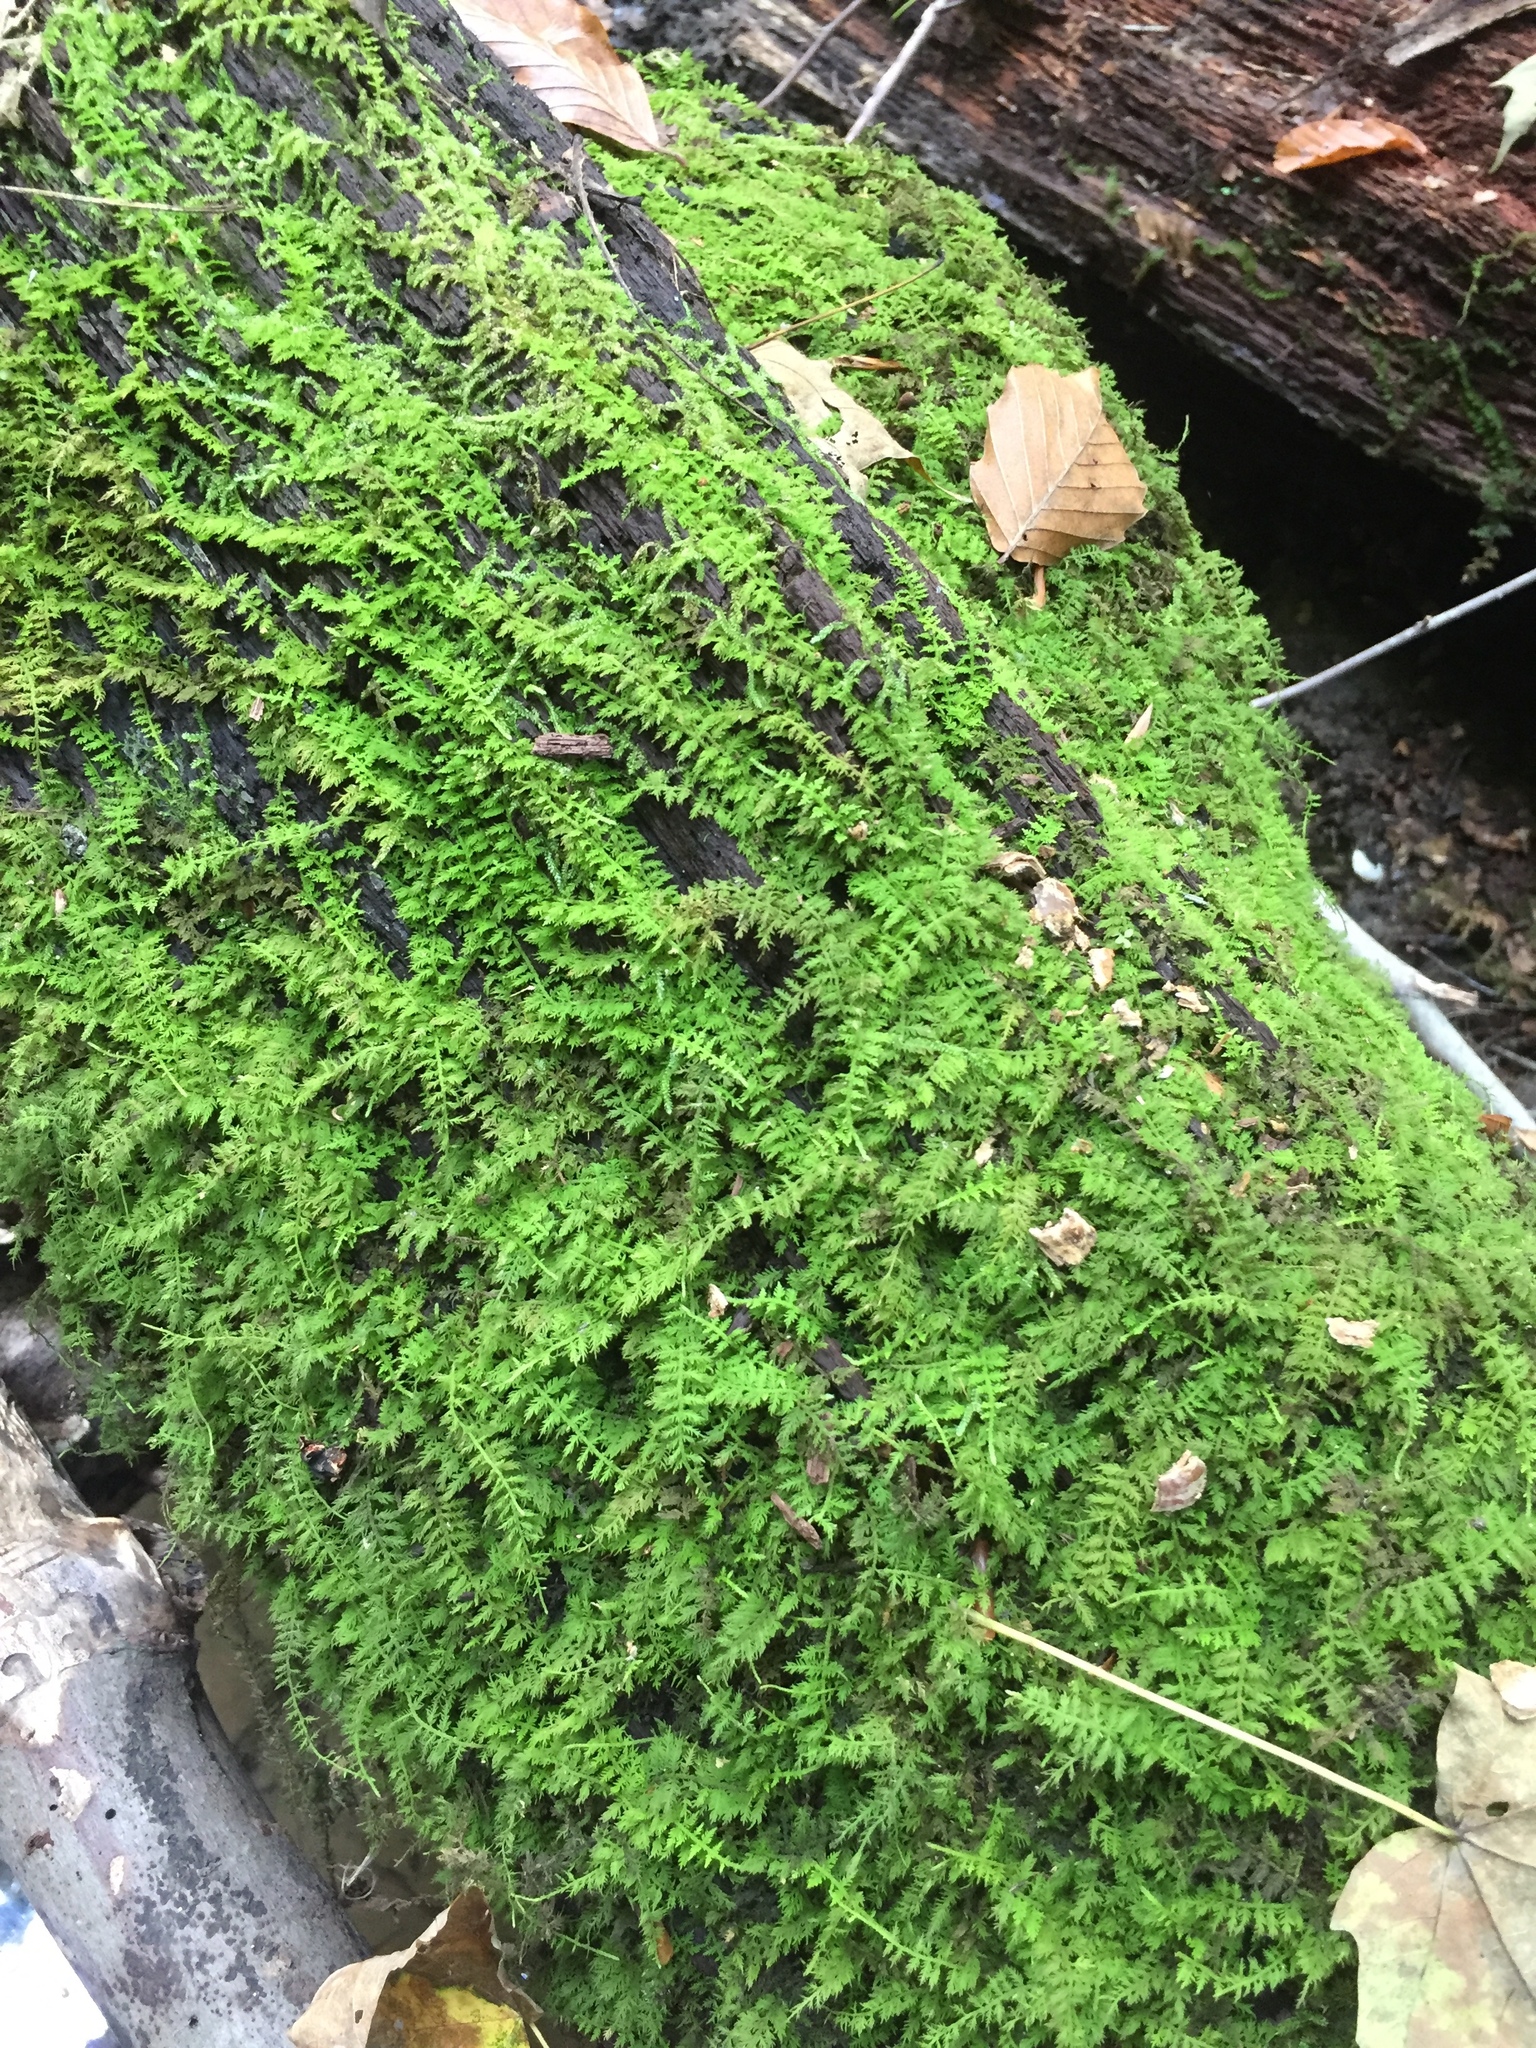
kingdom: Plantae
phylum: Bryophyta
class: Bryopsida
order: Hypnales
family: Thuidiaceae
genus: Thuidium
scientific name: Thuidium delicatulum
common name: Delicate fern moss
